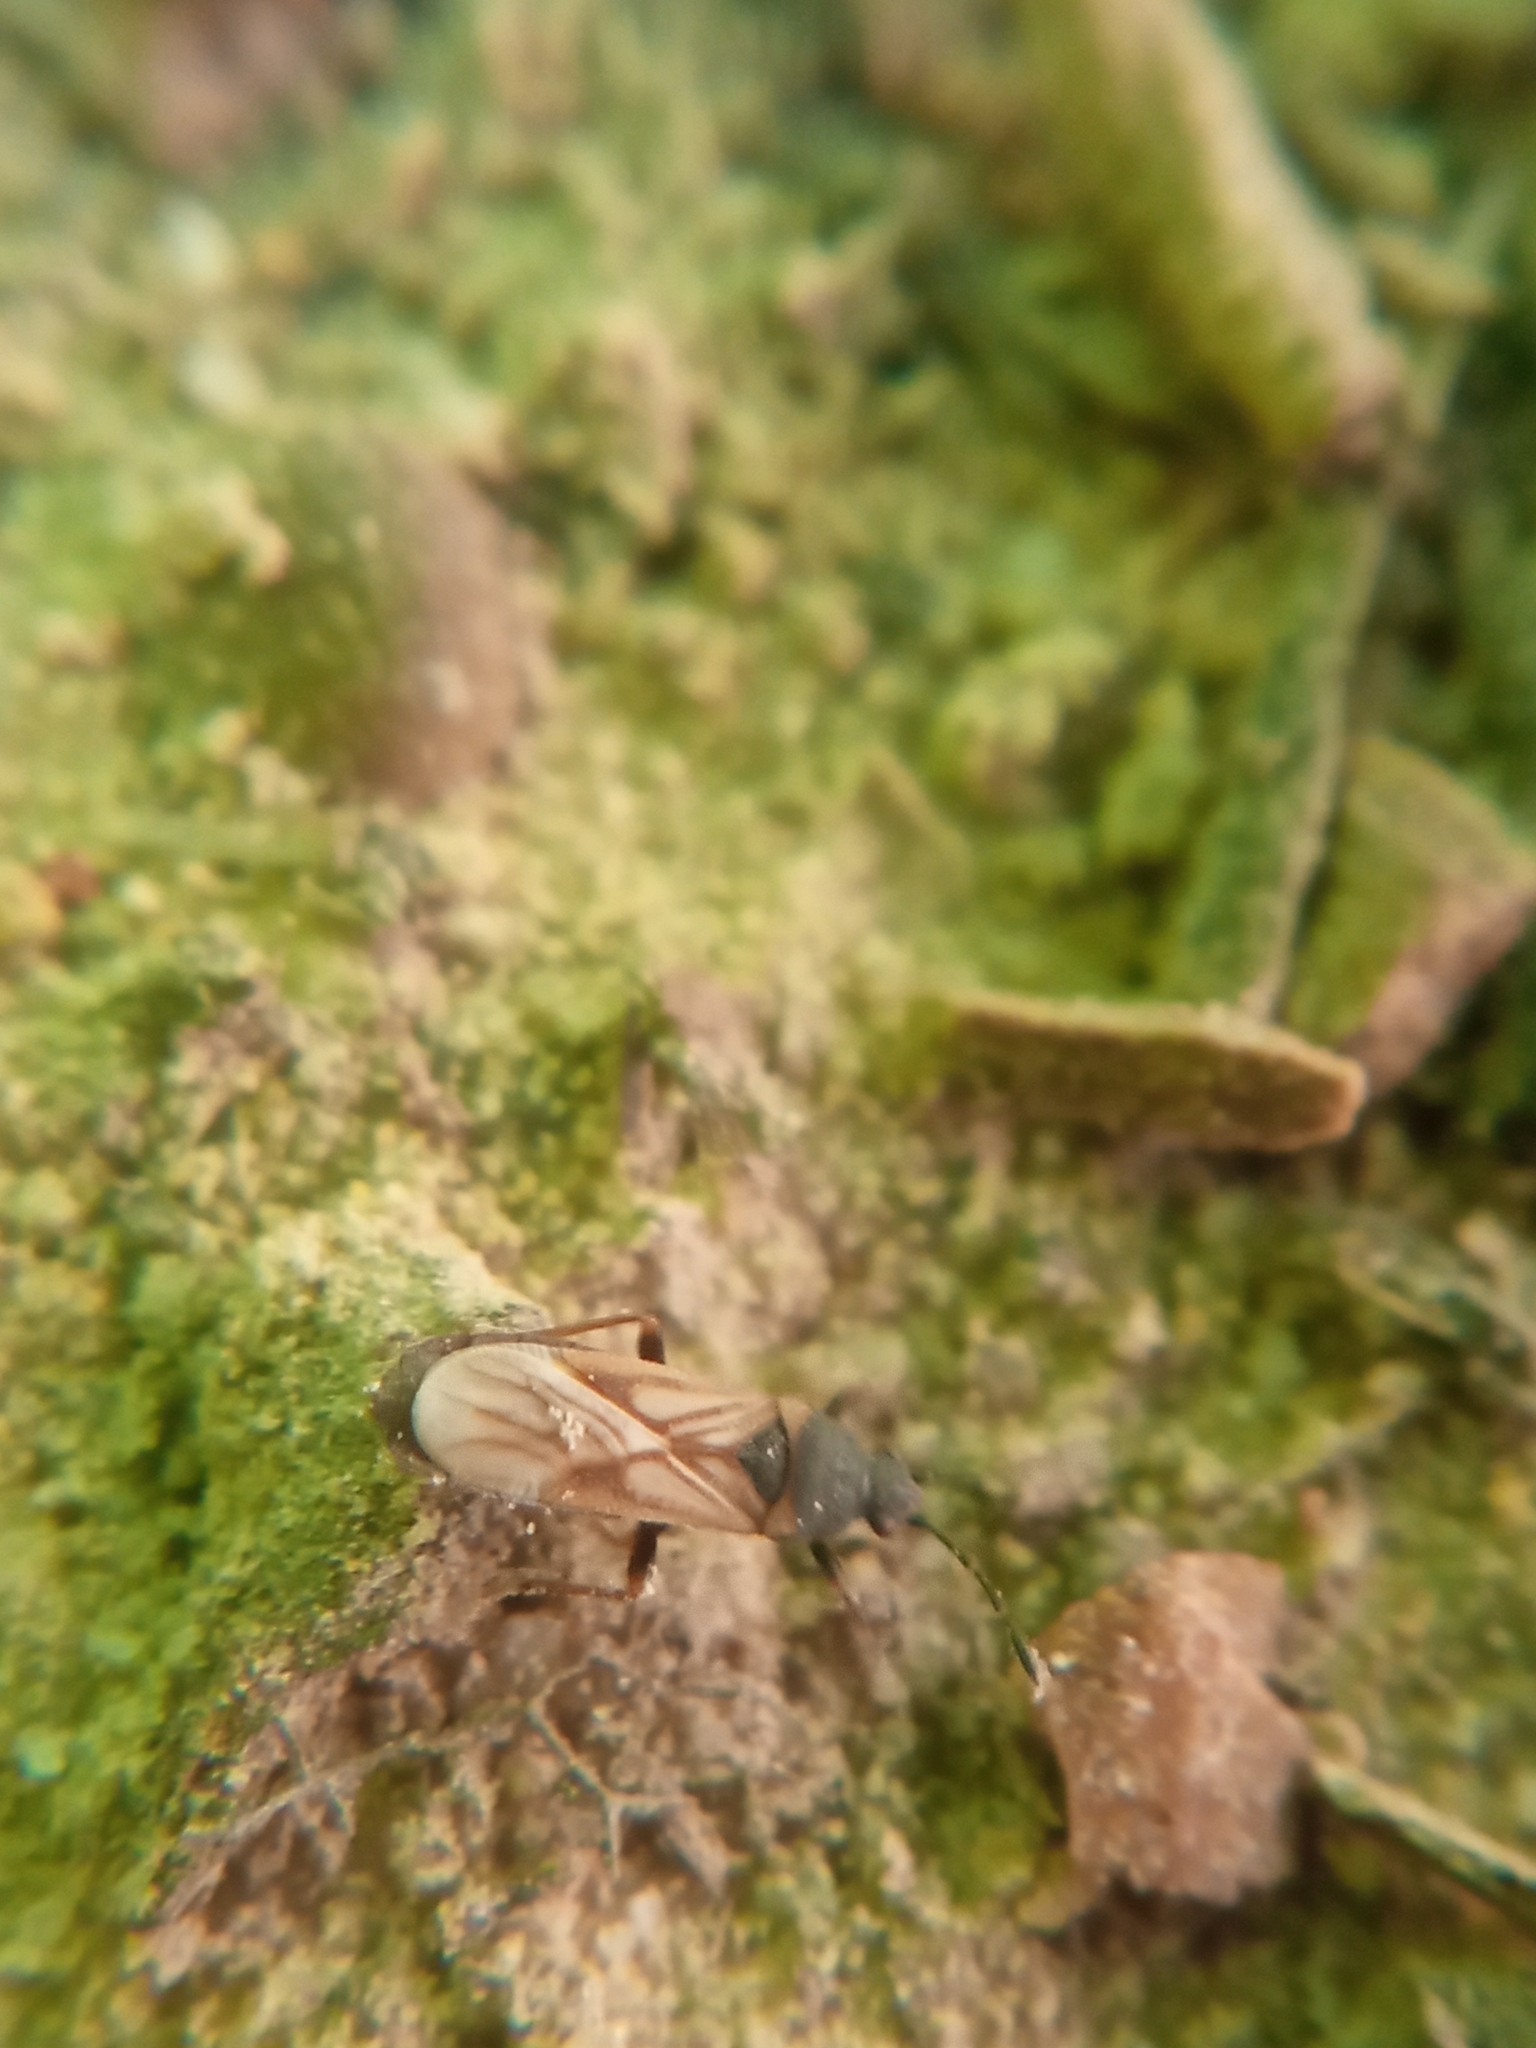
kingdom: Animalia
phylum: Arthropoda
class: Insecta
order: Hemiptera
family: Blissidae
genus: Ischnodemus
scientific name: Ischnodemus sabuleti
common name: European cinchbug
